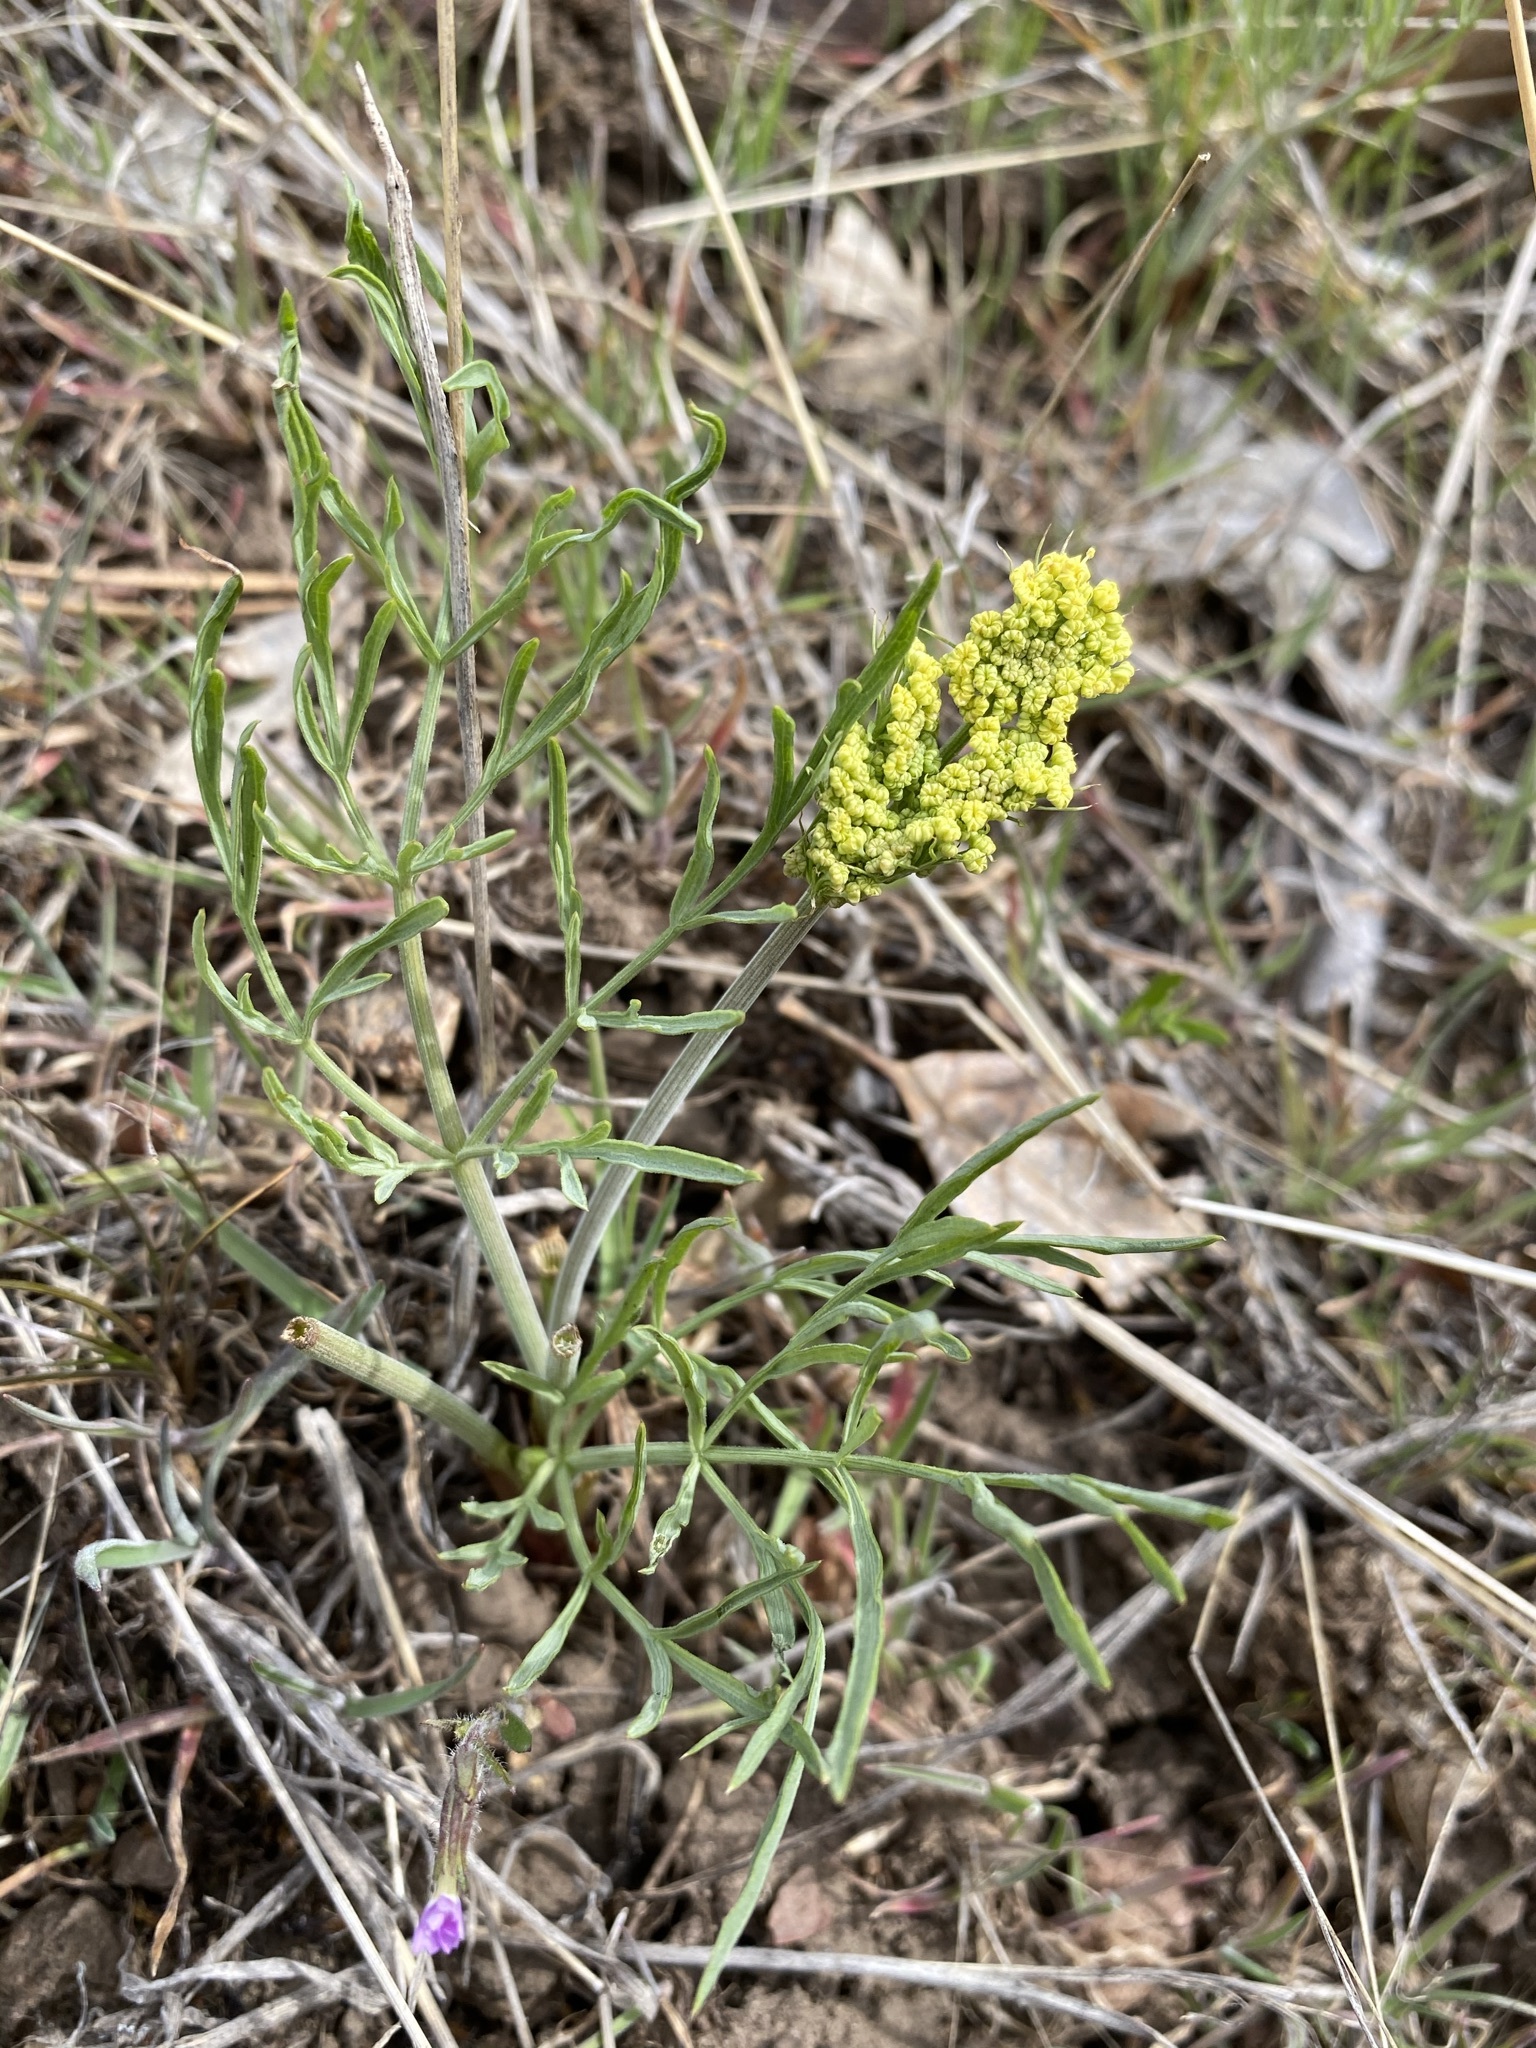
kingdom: Plantae
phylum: Tracheophyta
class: Magnoliopsida
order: Apiales
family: Apiaceae
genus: Lomatium
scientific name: Lomatium triternatum
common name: Ternate lomatium
